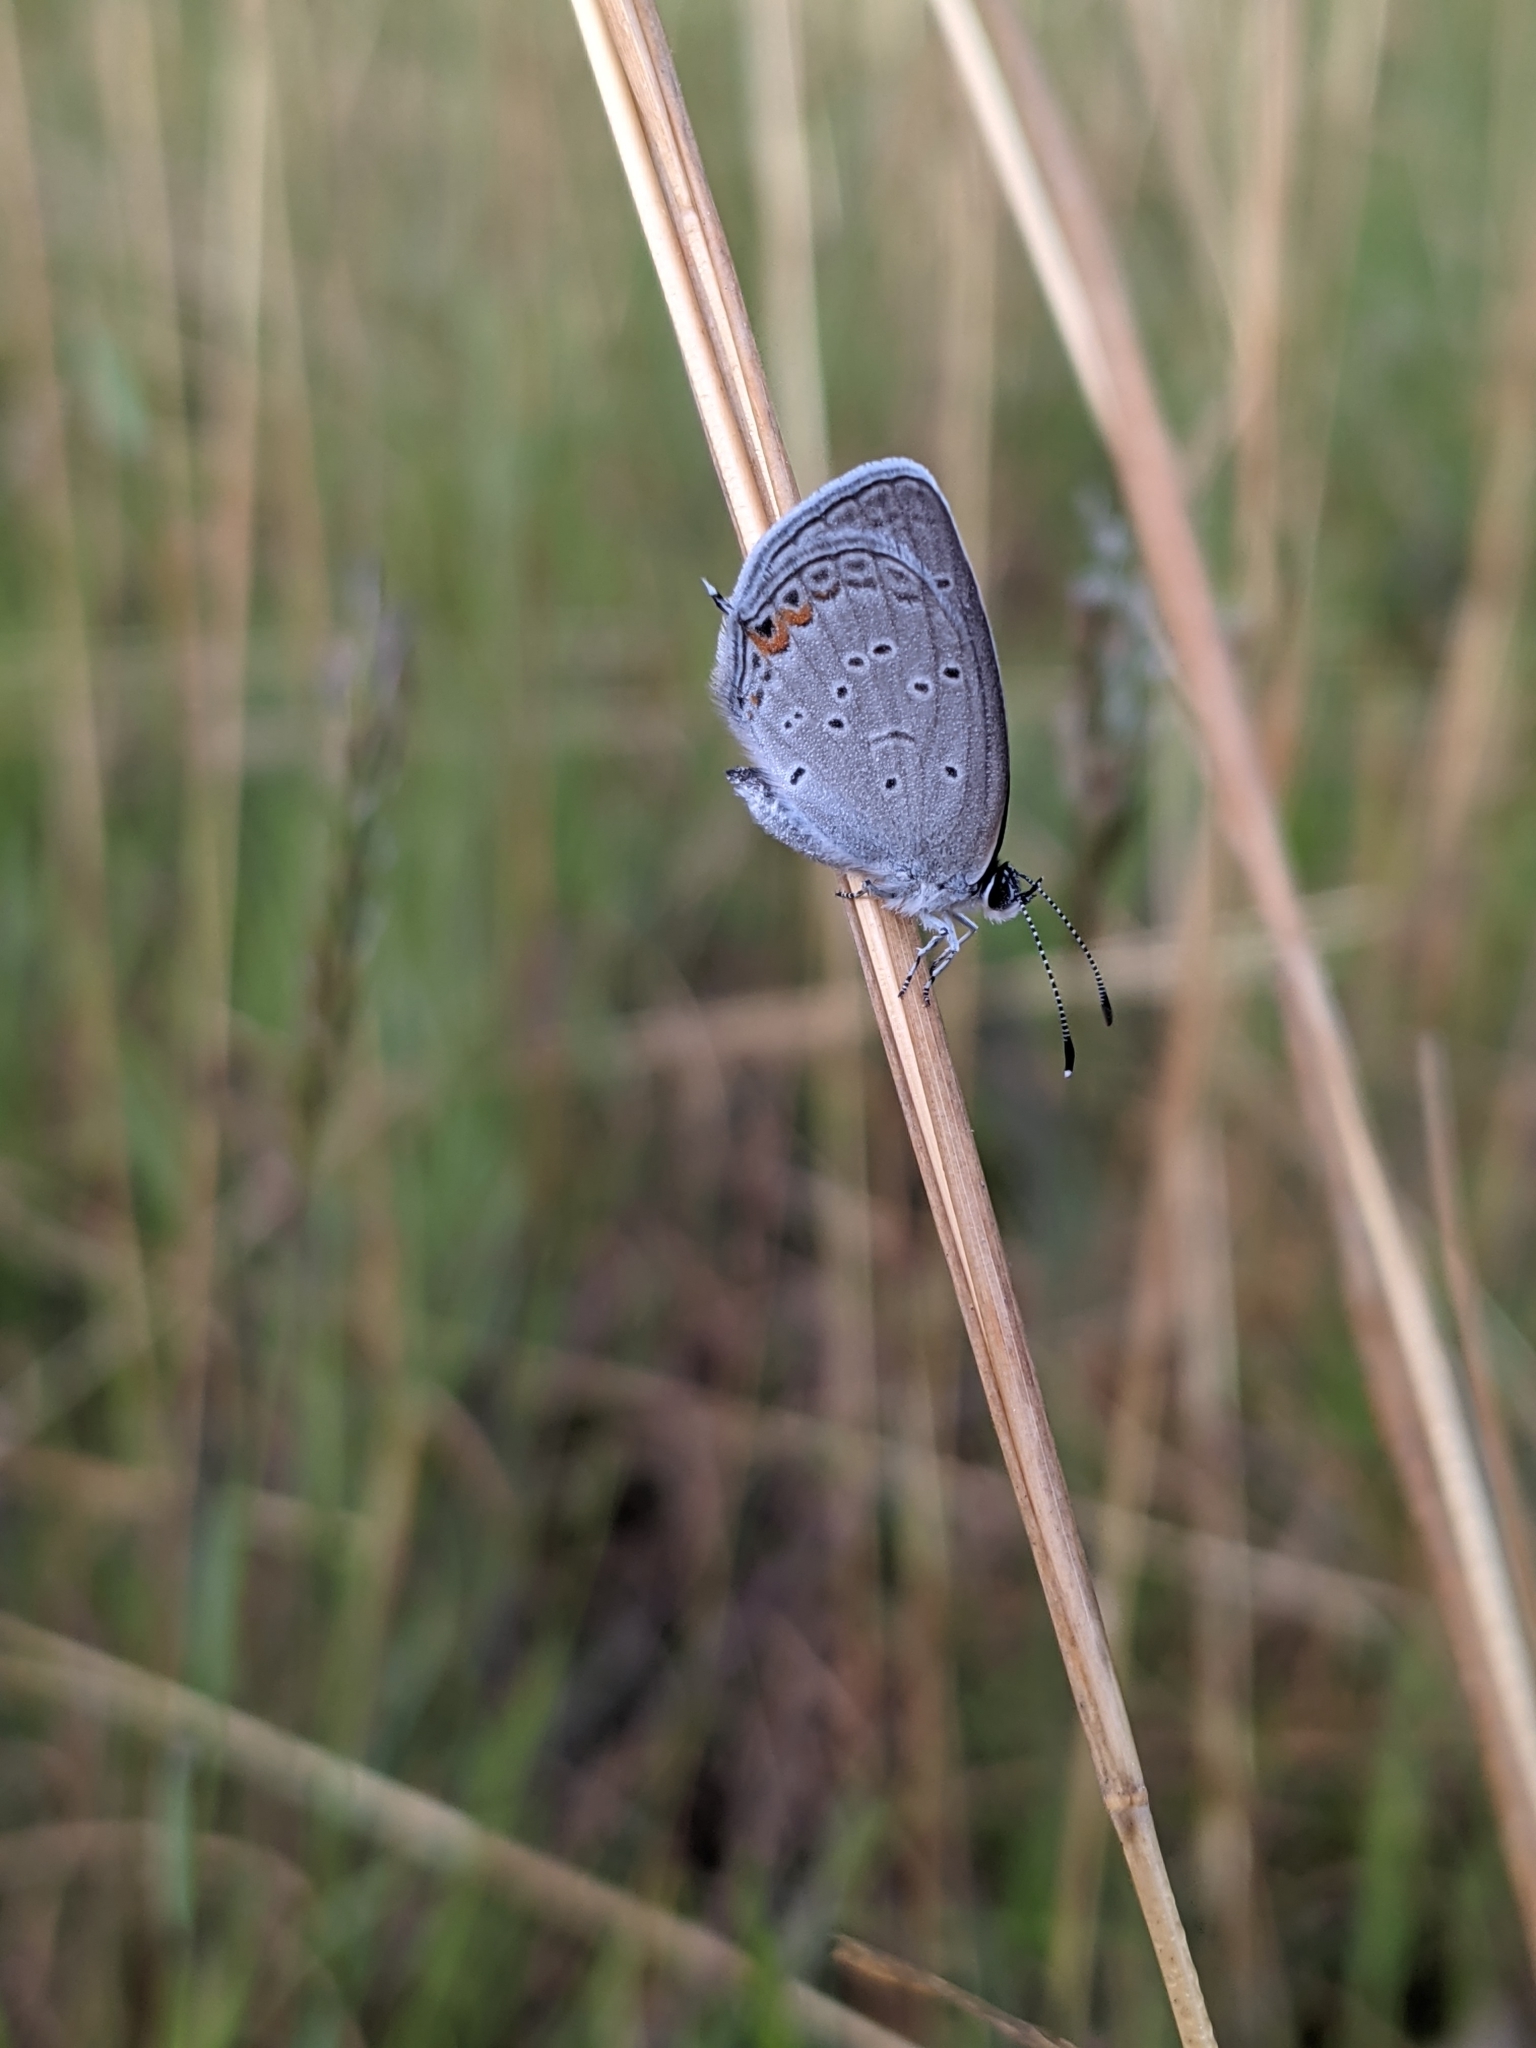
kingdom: Animalia
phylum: Arthropoda
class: Insecta
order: Lepidoptera
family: Lycaenidae
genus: Elkalyce
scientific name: Elkalyce comyntas
